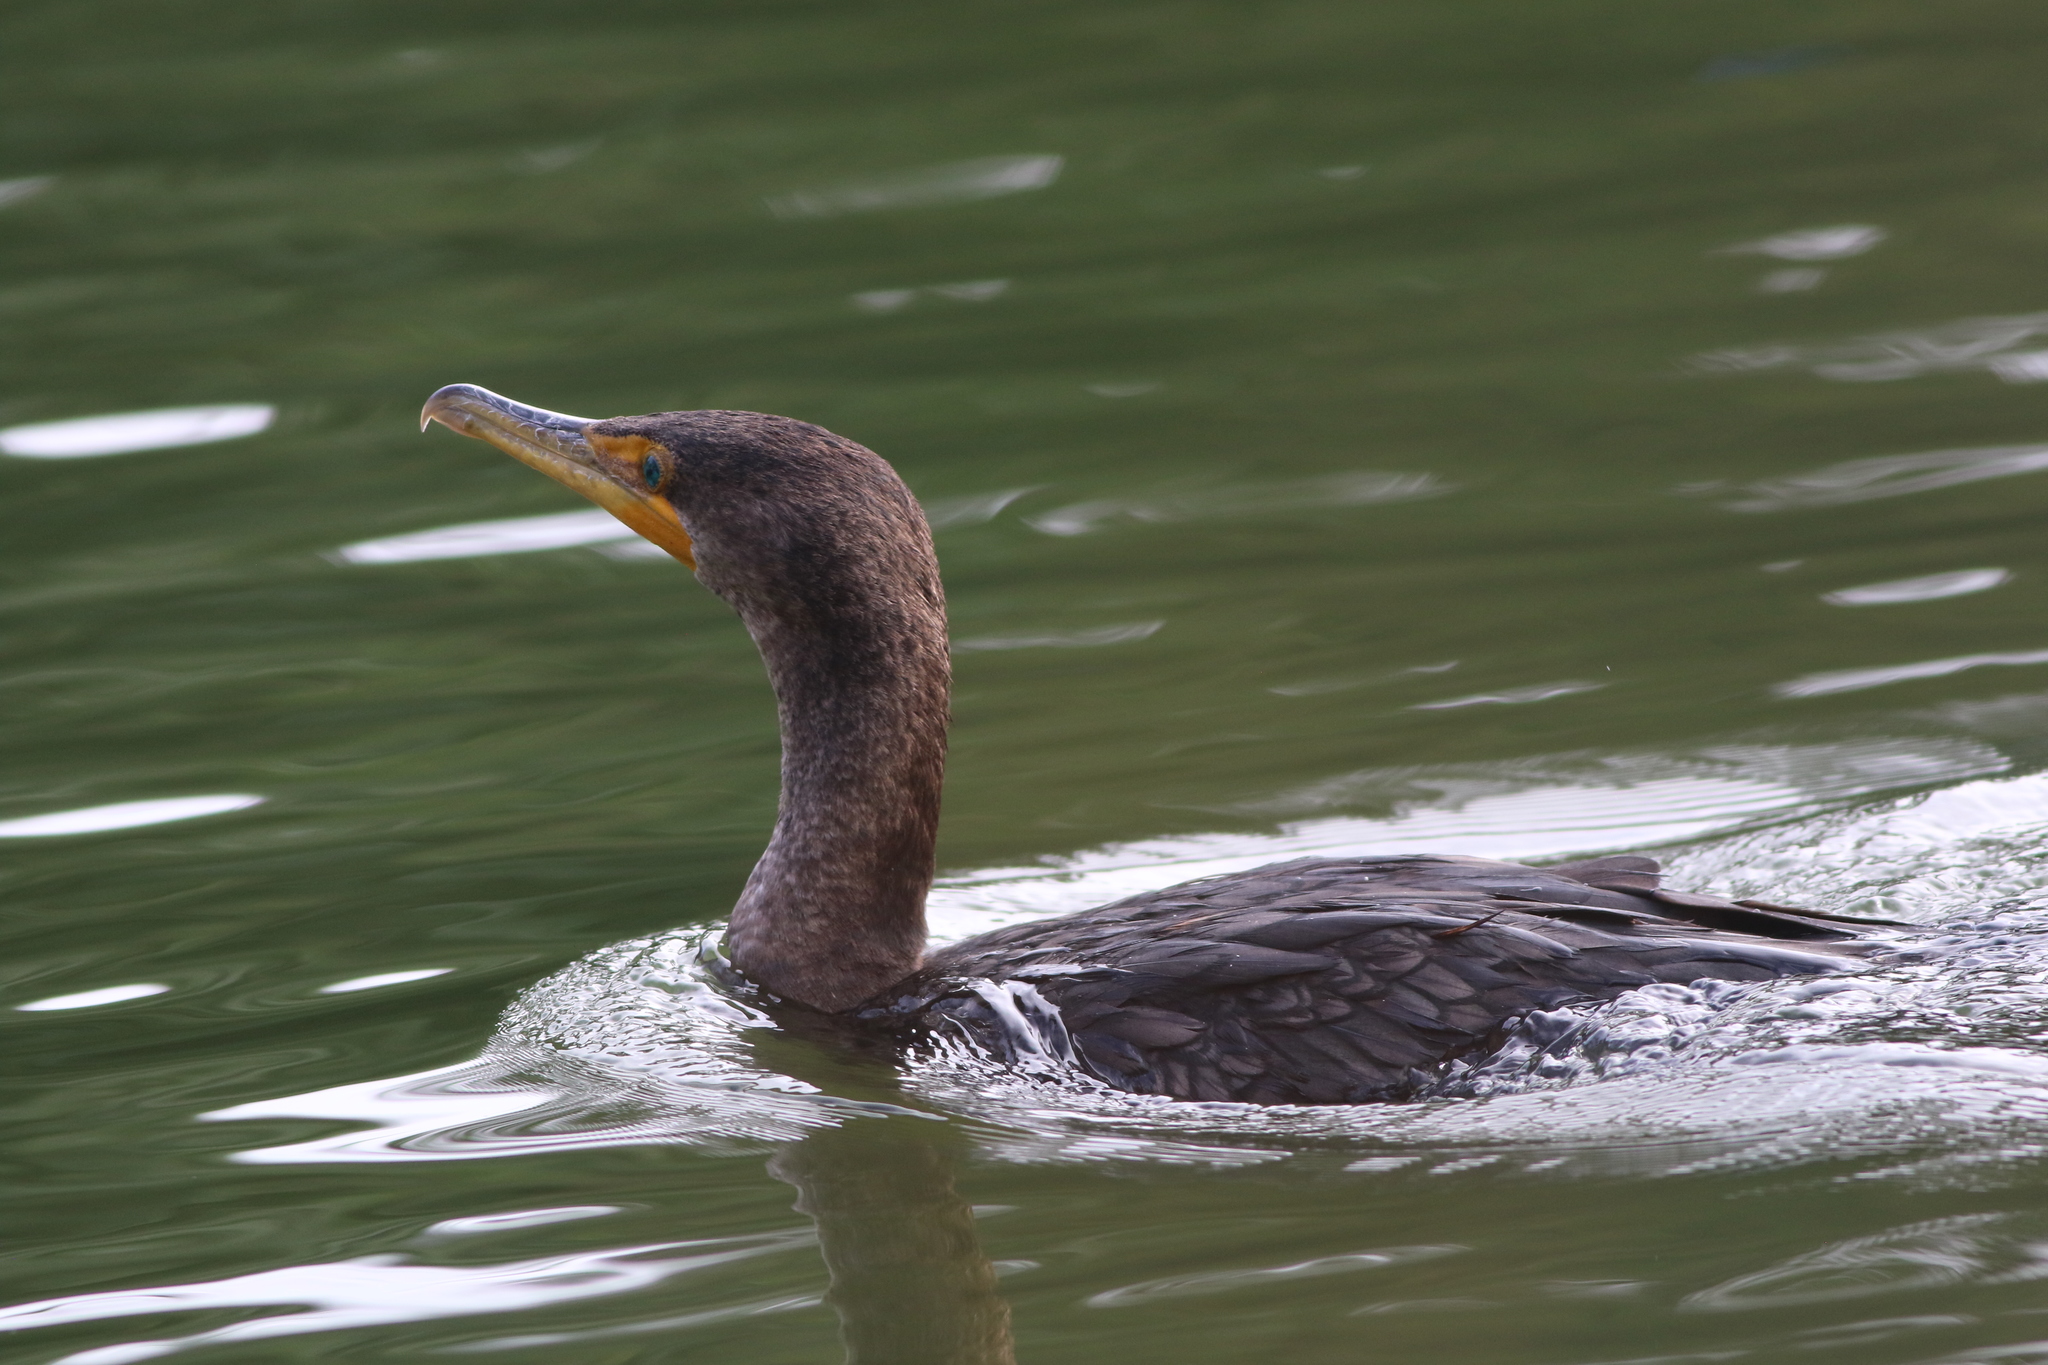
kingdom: Animalia
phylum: Chordata
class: Aves
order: Suliformes
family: Phalacrocoracidae
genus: Phalacrocorax
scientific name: Phalacrocorax auritus
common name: Double-crested cormorant
